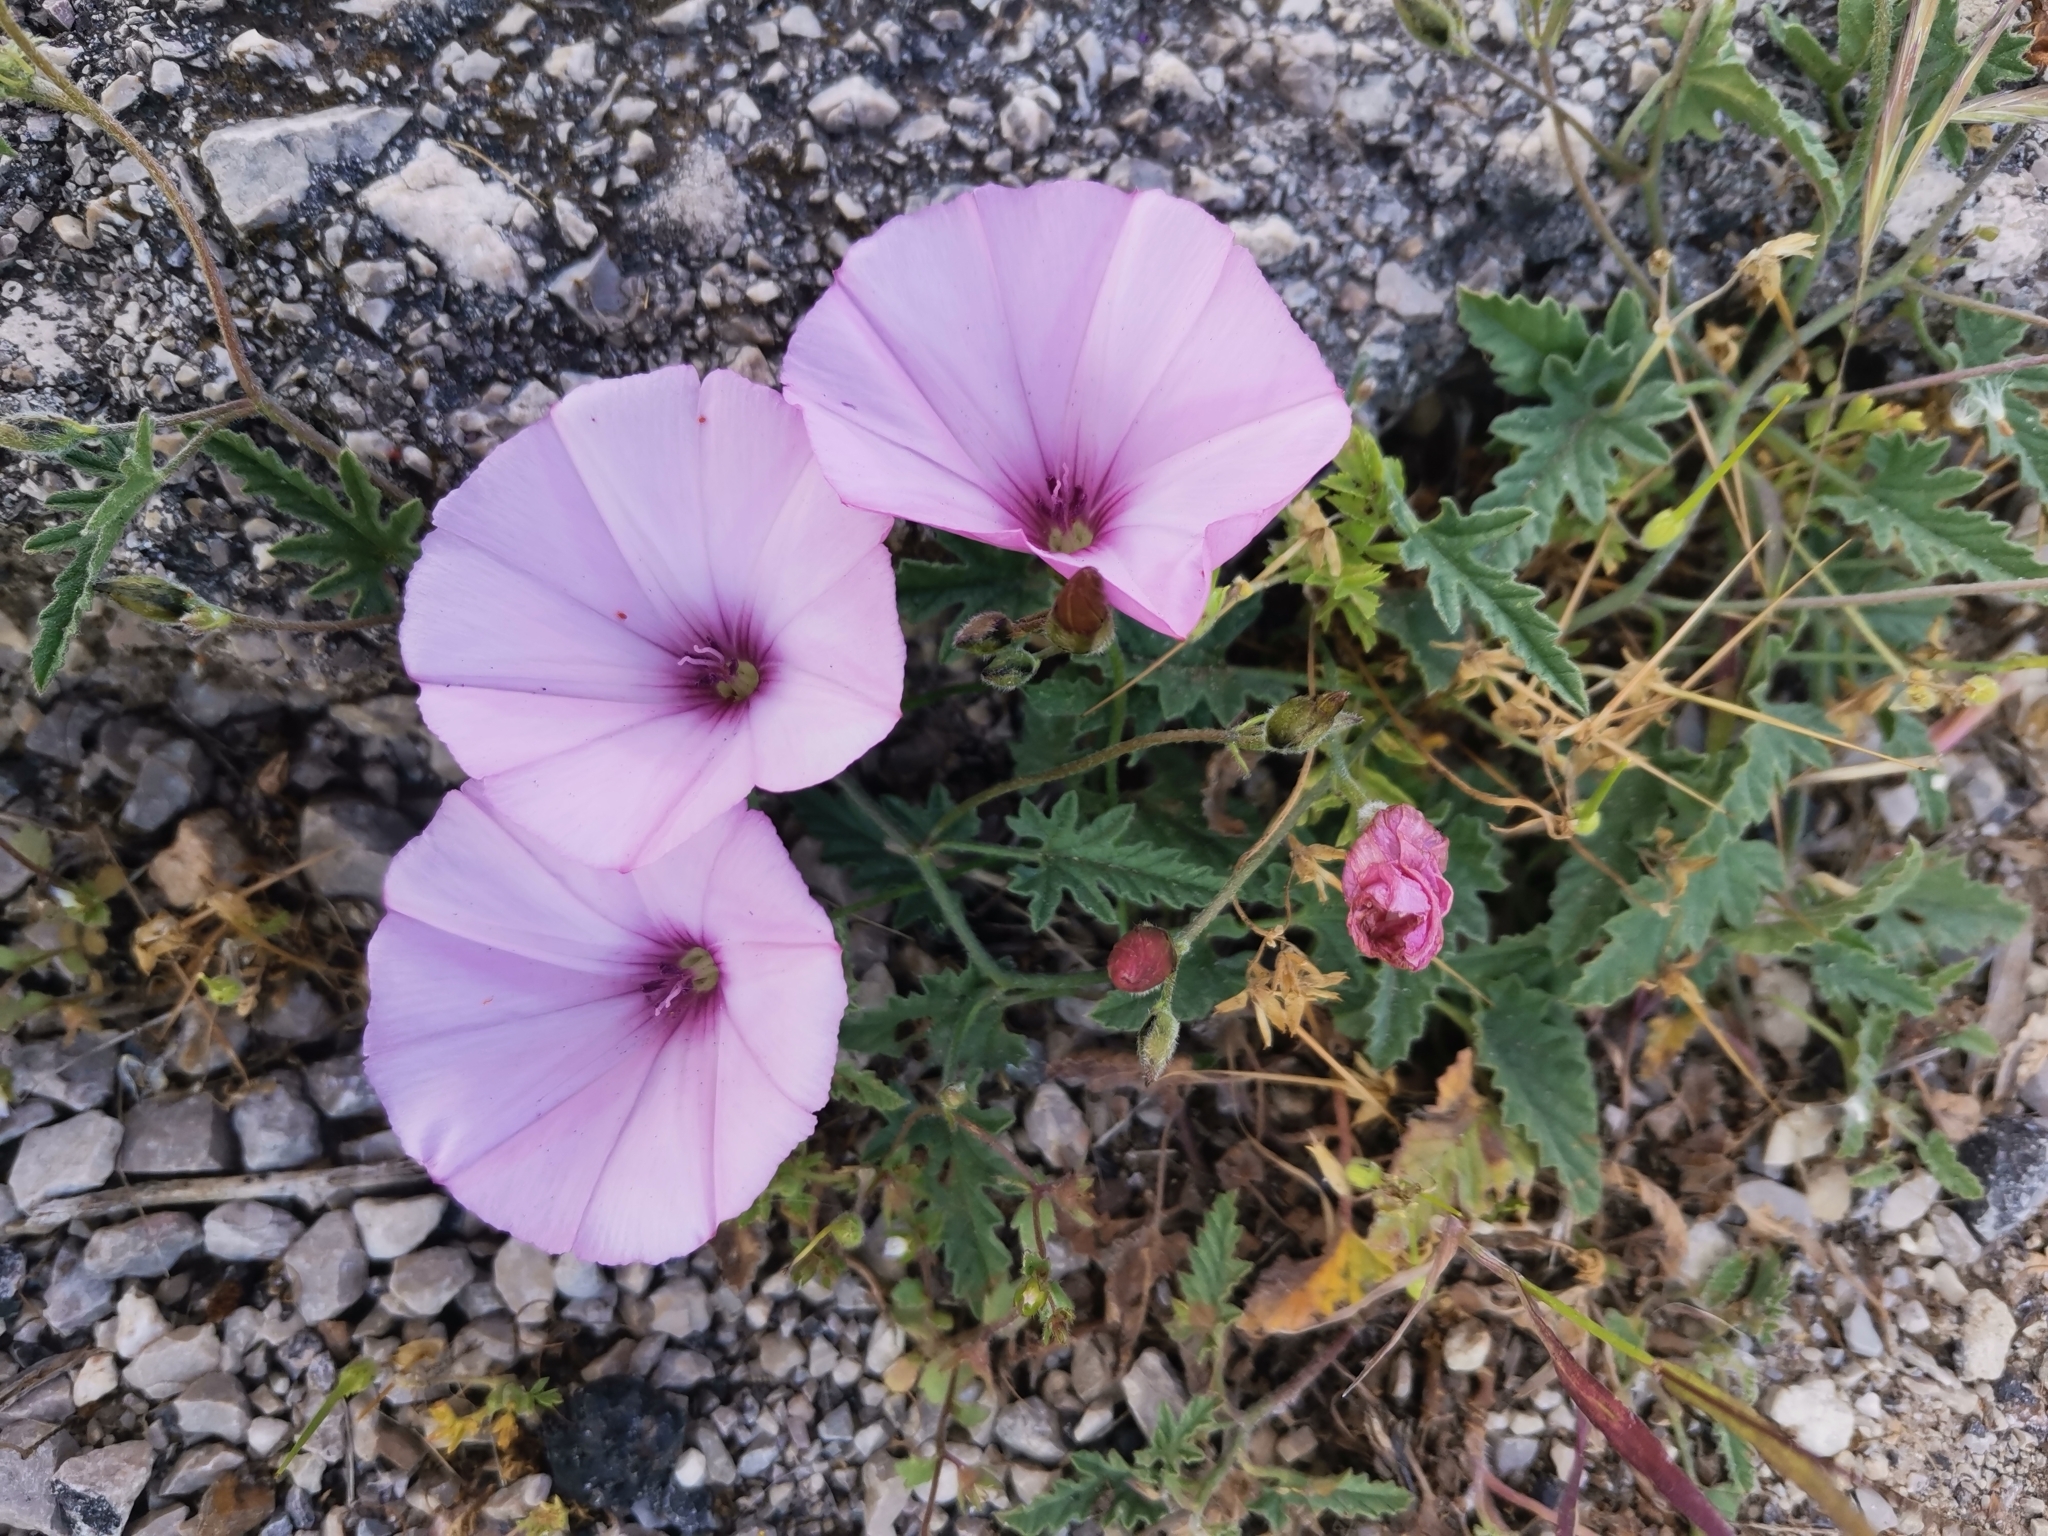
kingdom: Plantae
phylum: Tracheophyta
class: Magnoliopsida
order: Solanales
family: Convolvulaceae
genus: Convolvulus
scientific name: Convolvulus althaeoides
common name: Mallow bindweed
